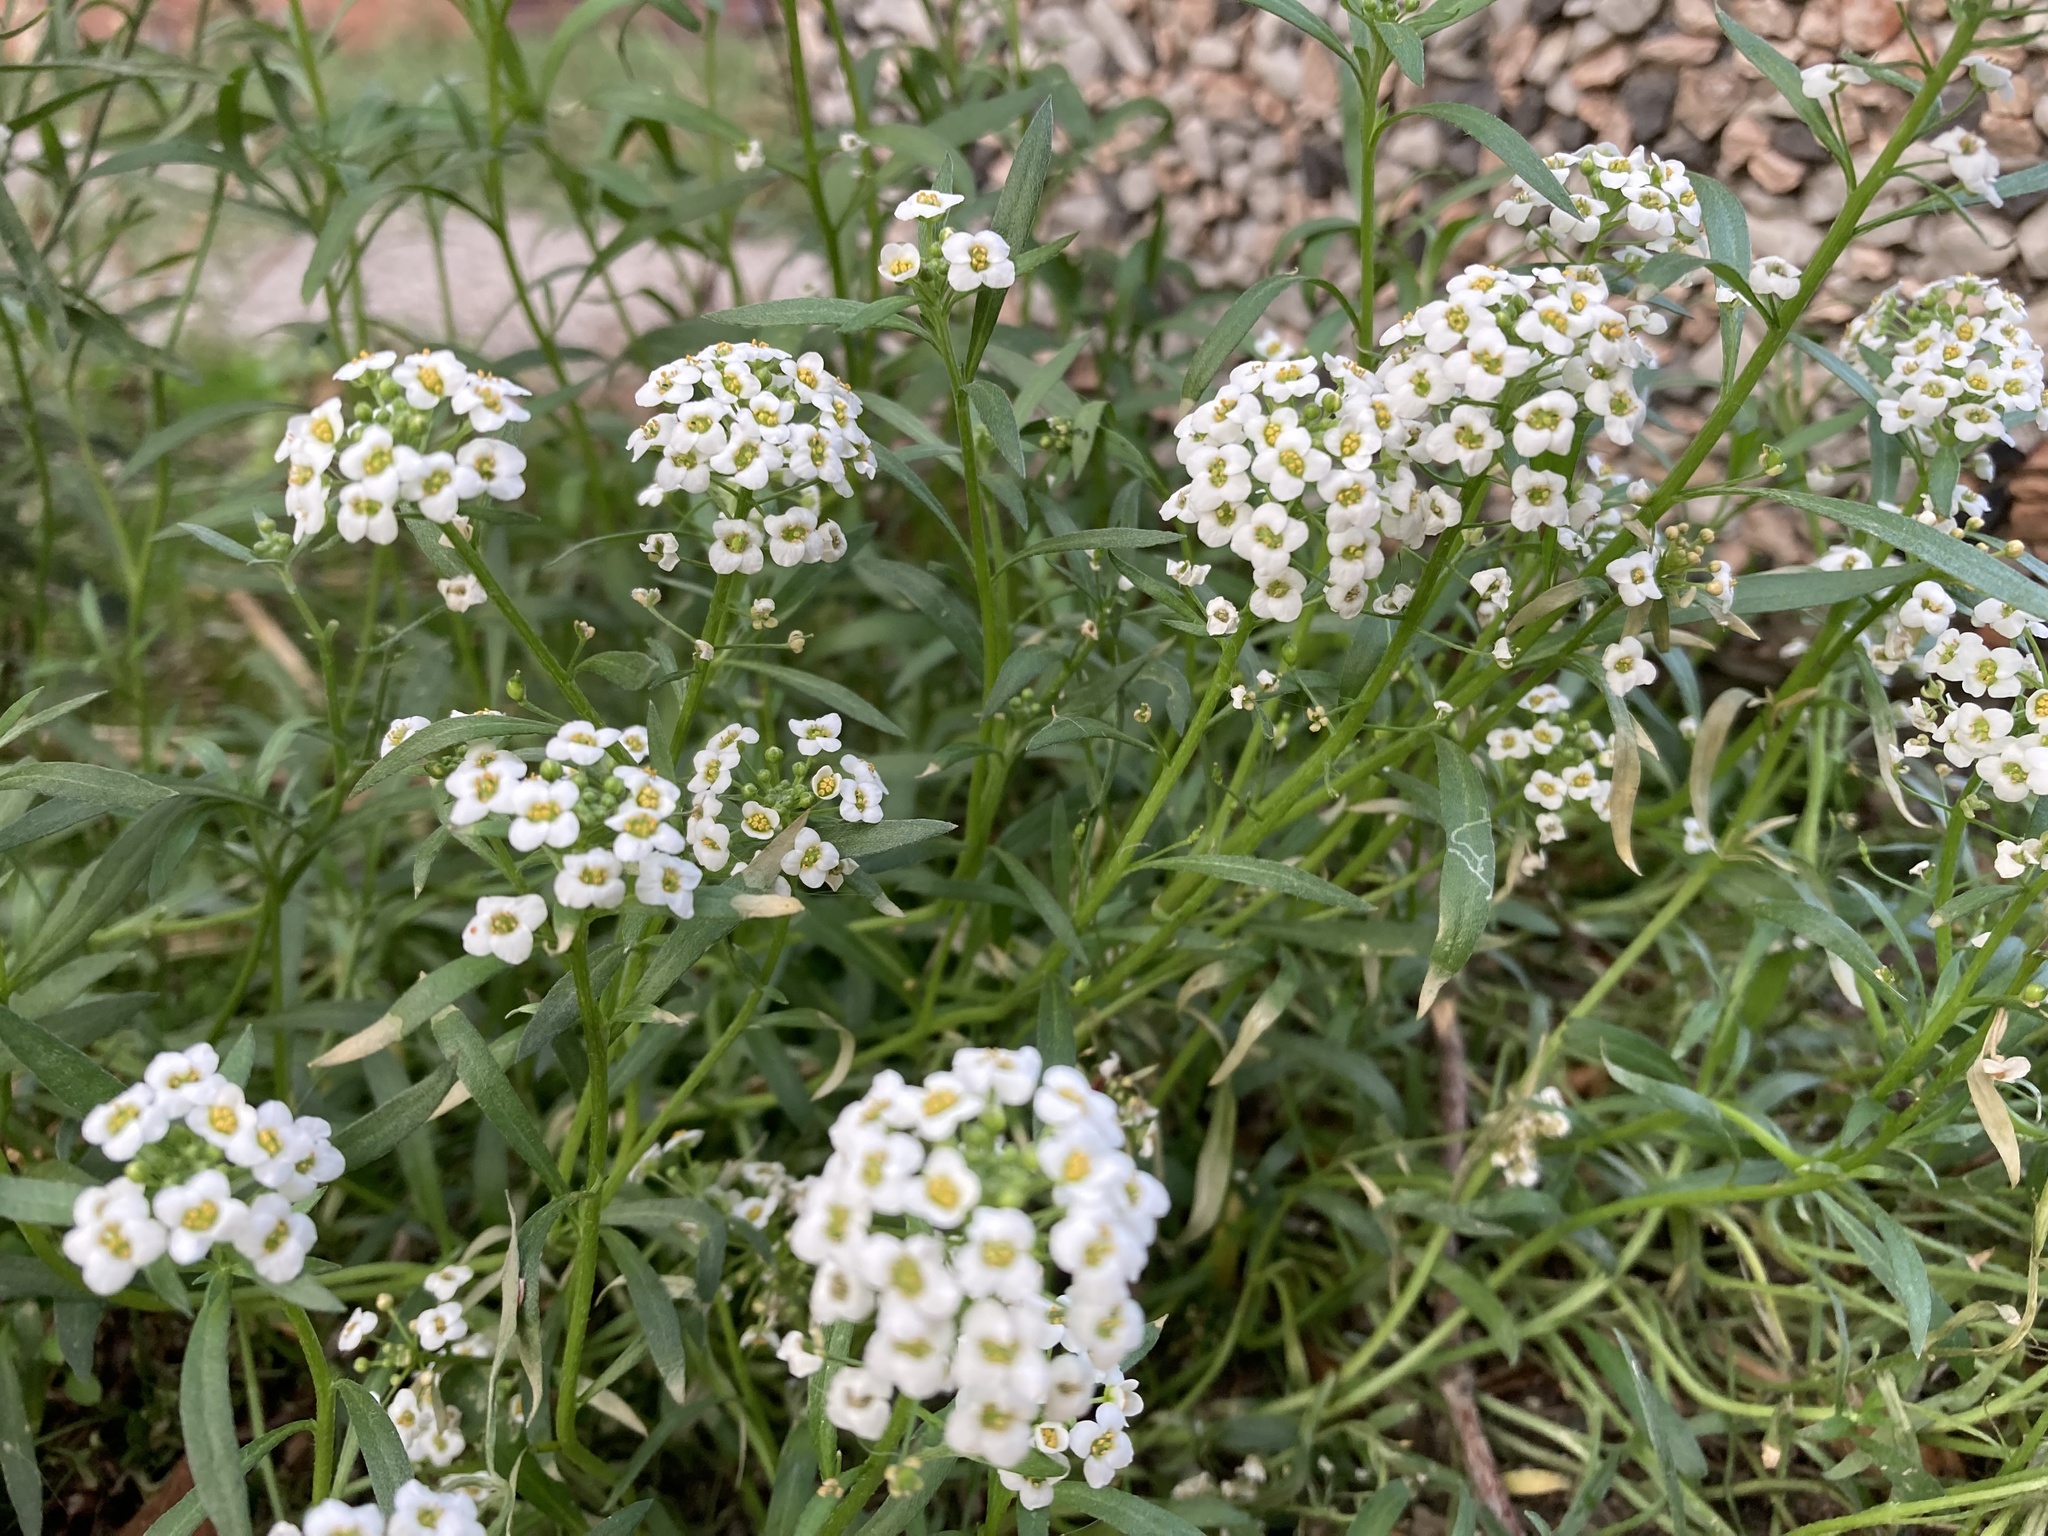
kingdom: Plantae
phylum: Tracheophyta
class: Magnoliopsida
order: Brassicales
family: Brassicaceae
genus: Lobularia
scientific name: Lobularia maritima
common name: Sweet alison
